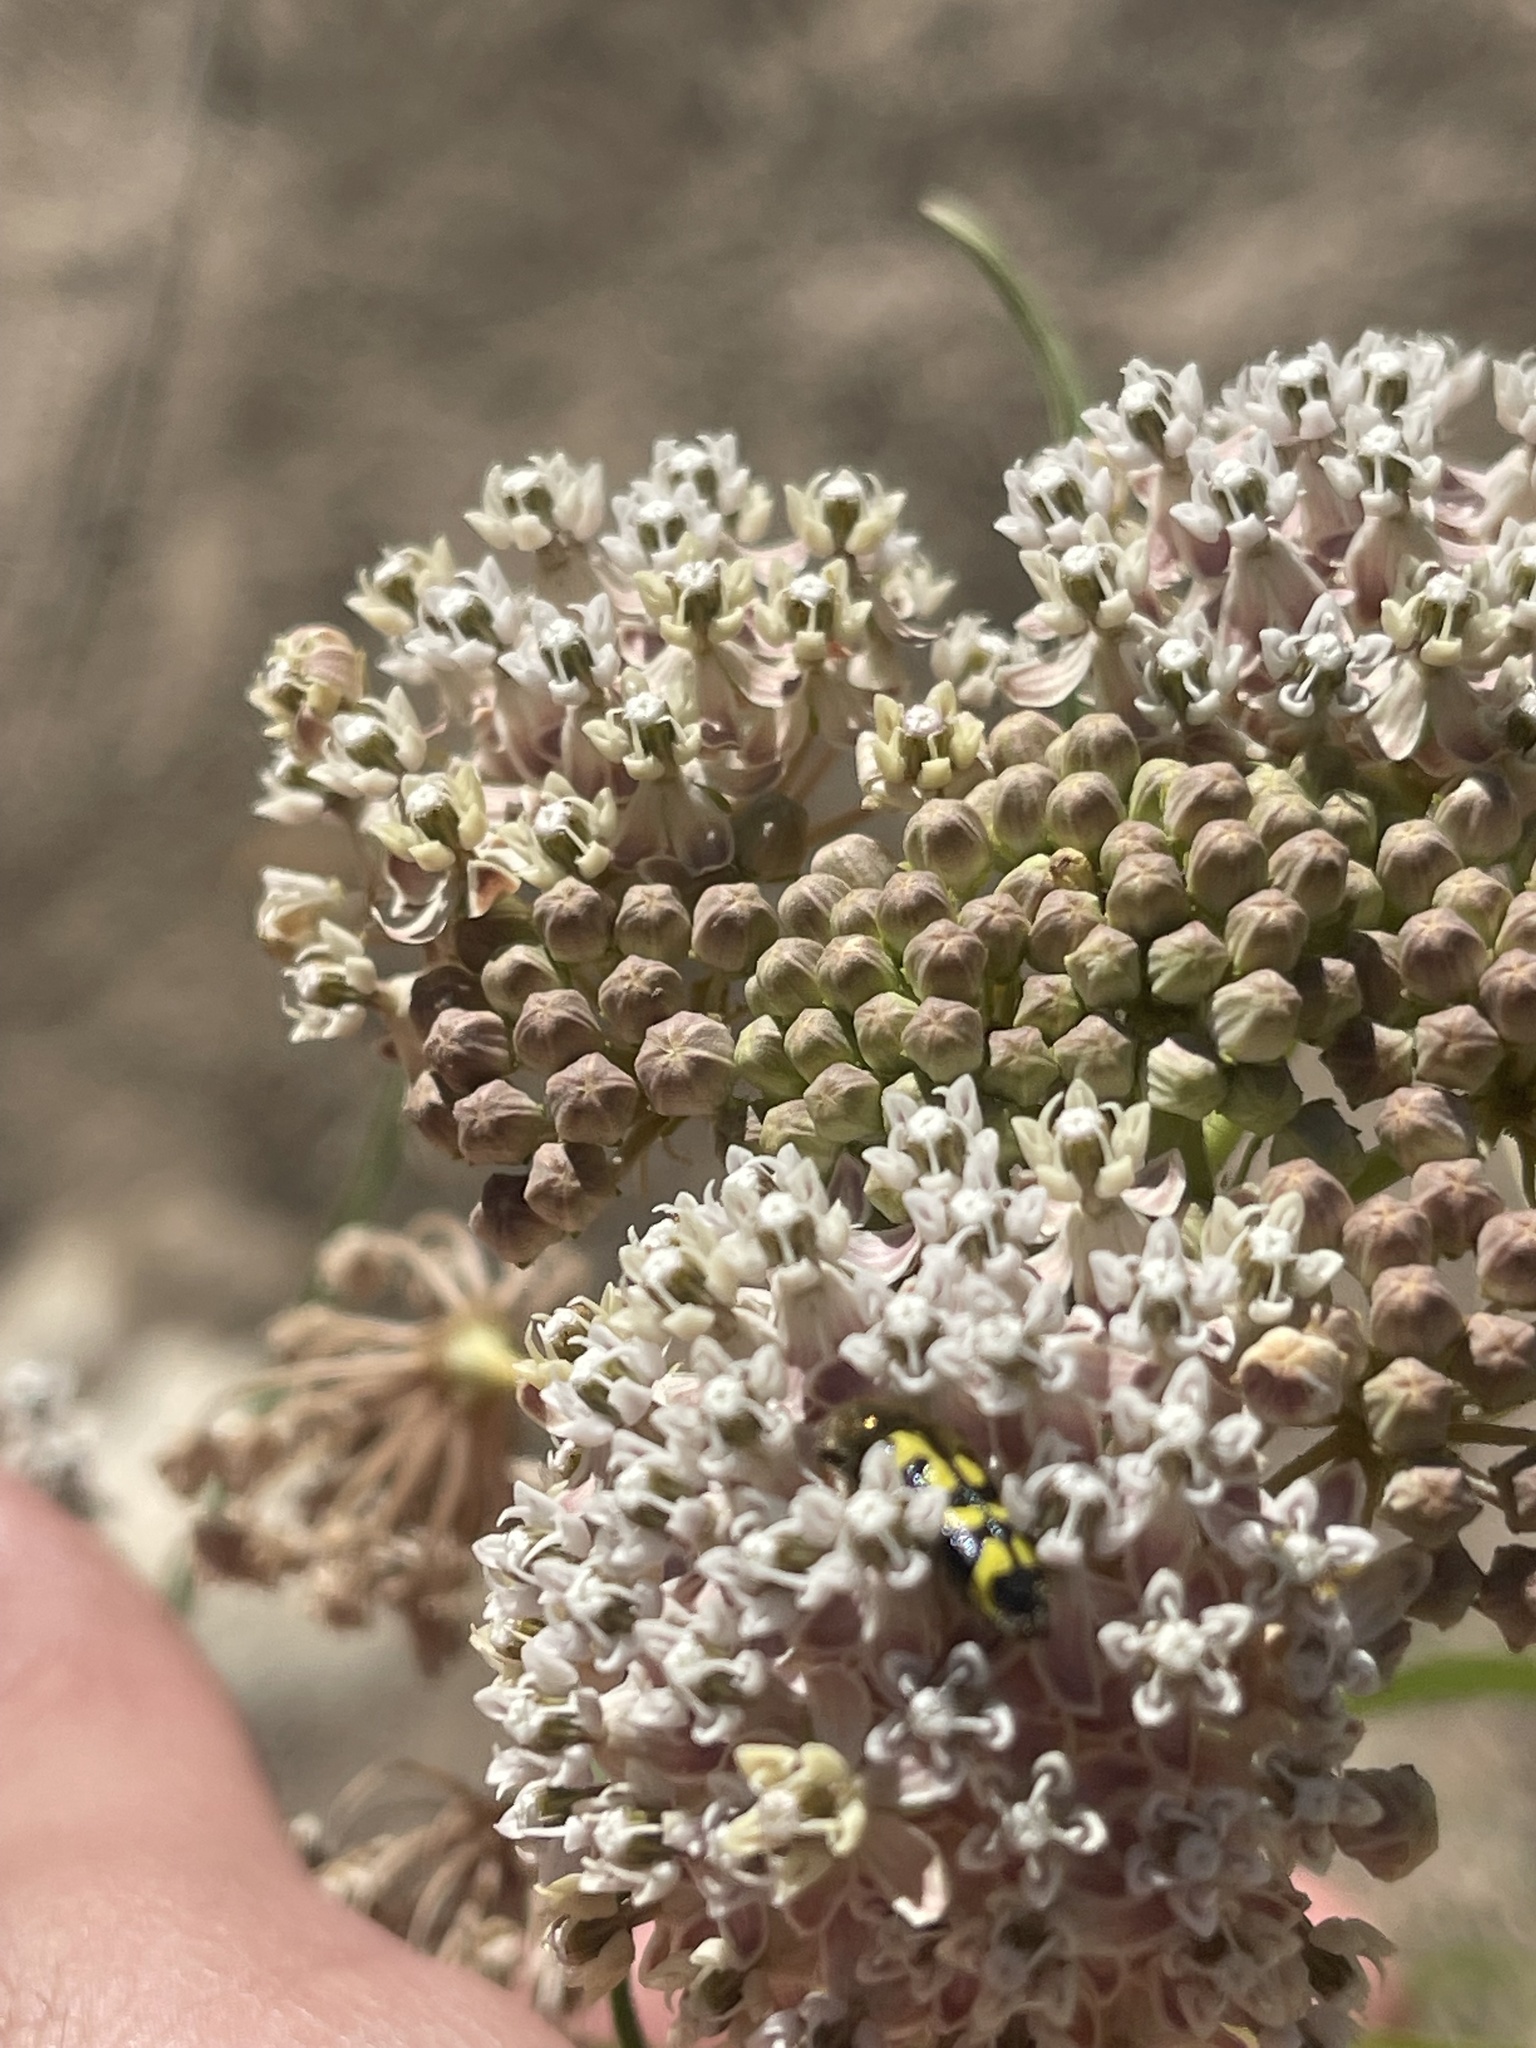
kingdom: Animalia
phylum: Arthropoda
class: Insecta
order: Coleoptera
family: Cleridae
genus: Trichodes
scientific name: Trichodes ornatus
